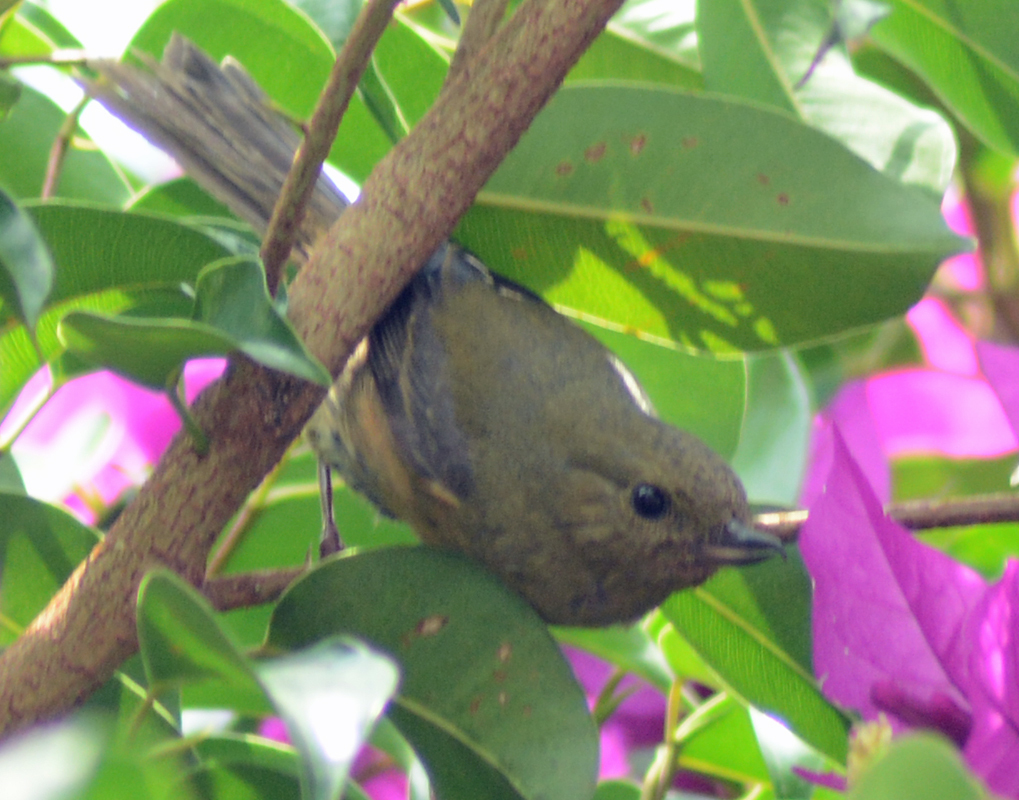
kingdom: Animalia
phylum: Chordata
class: Aves
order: Passeriformes
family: Thraupidae
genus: Diglossa
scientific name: Diglossa baritula
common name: Cinnamon-bellied flowerpiercer
